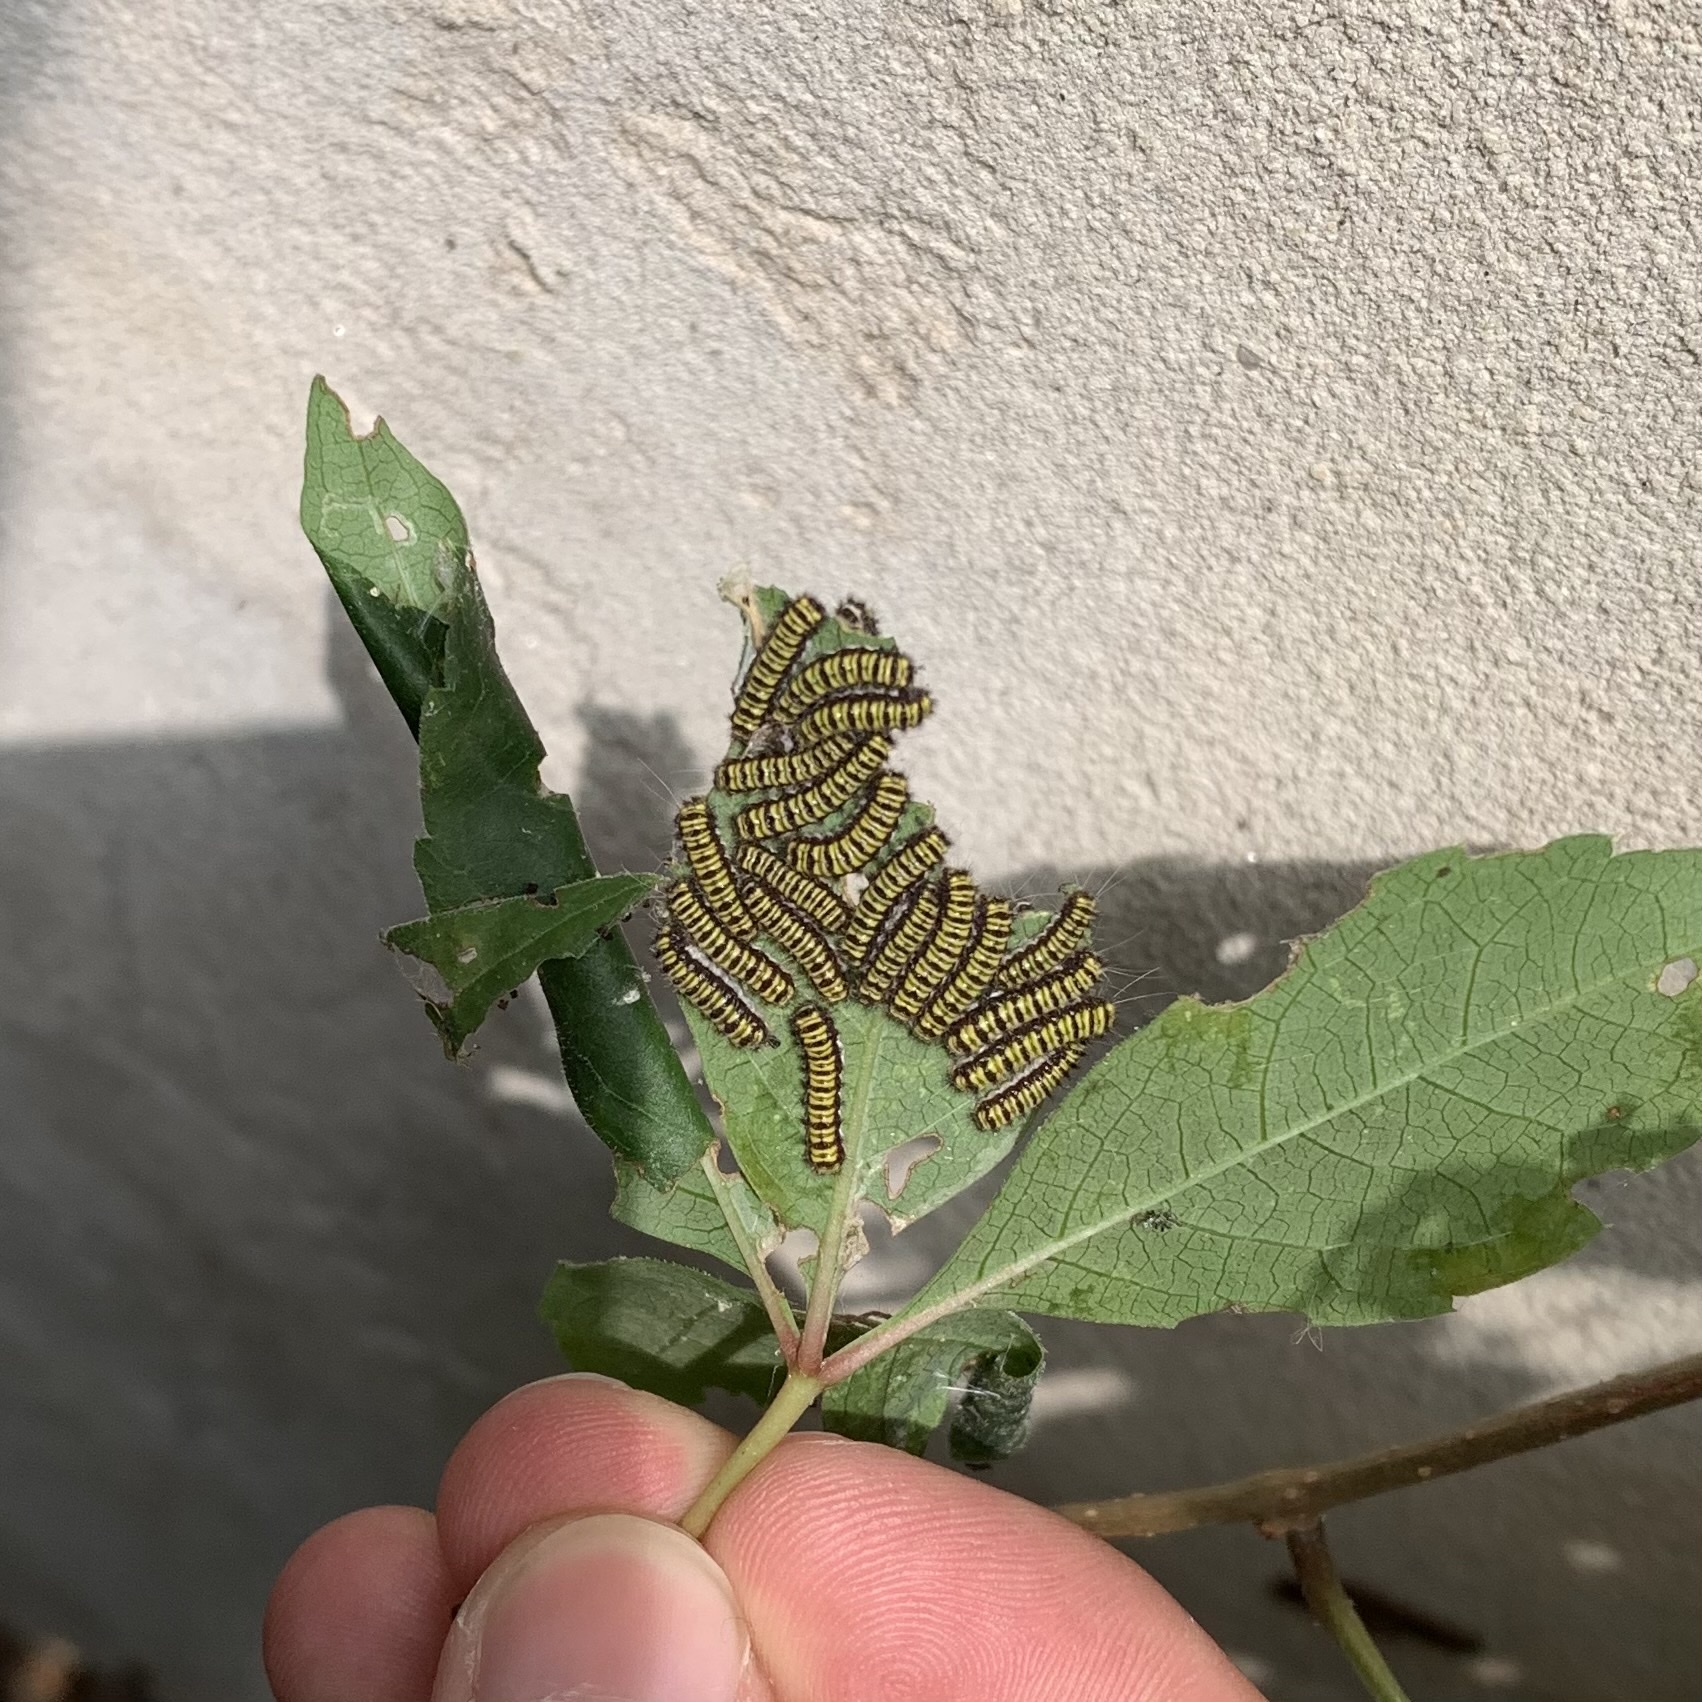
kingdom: Animalia
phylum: Arthropoda
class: Insecta
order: Lepidoptera
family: Zygaenidae
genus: Harrisina
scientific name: Harrisina americana
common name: Grapeleaf skeletonizer moth
